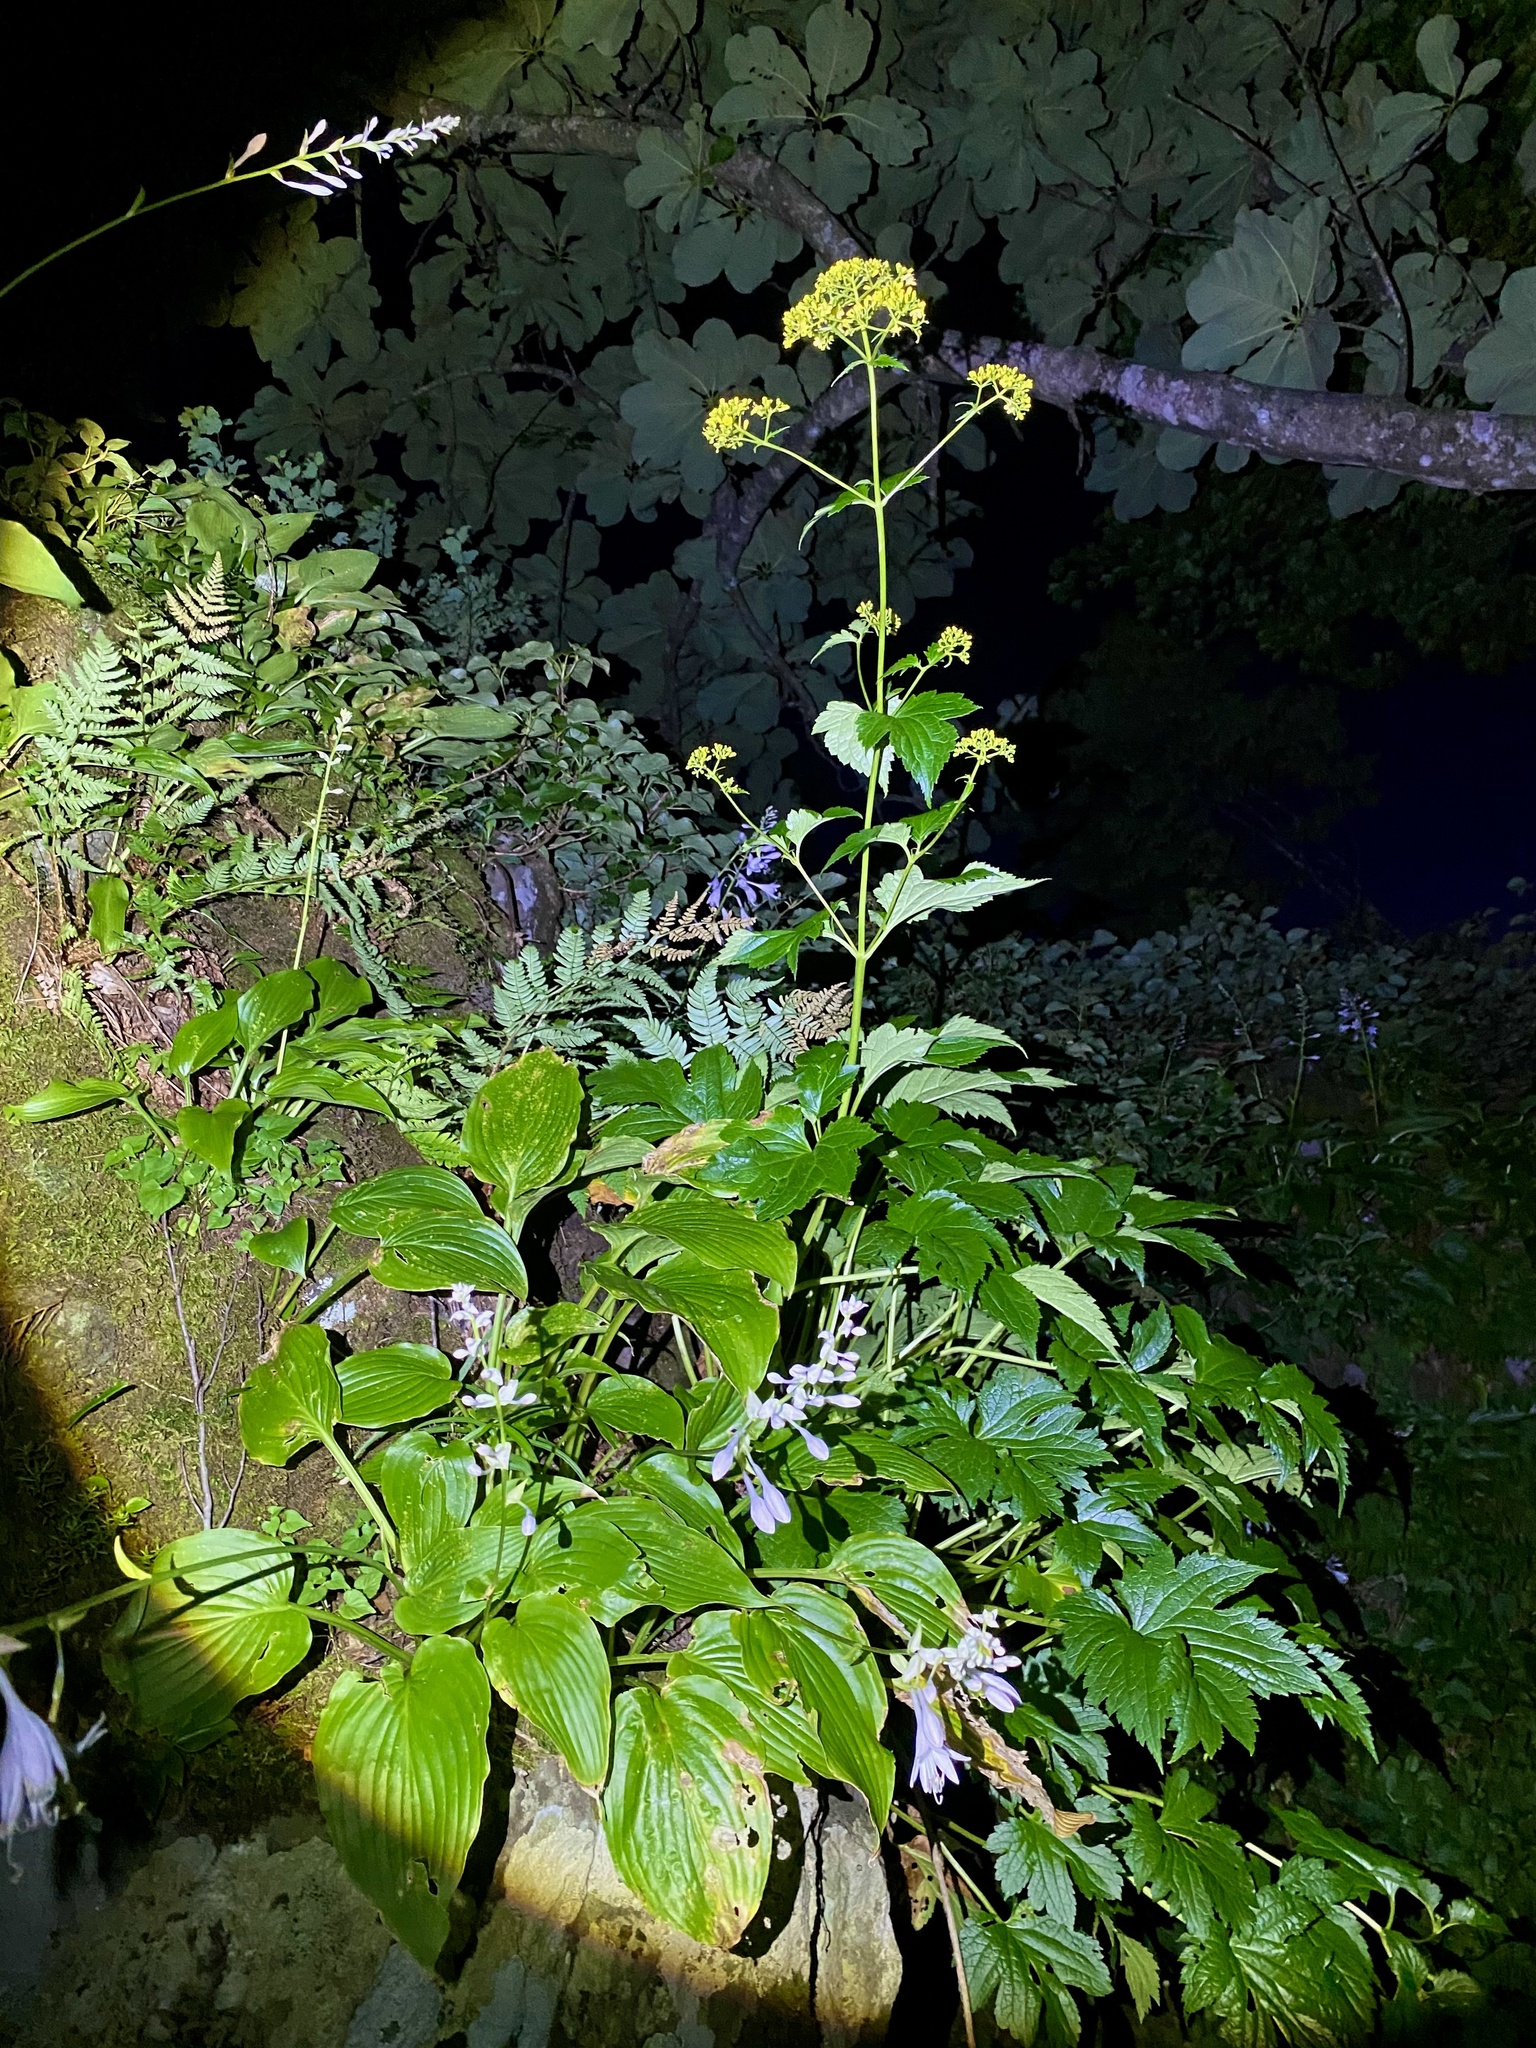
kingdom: Plantae
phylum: Tracheophyta
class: Magnoliopsida
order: Dipsacales
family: Caprifoliaceae
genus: Patrinia
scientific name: Patrinia triloba
